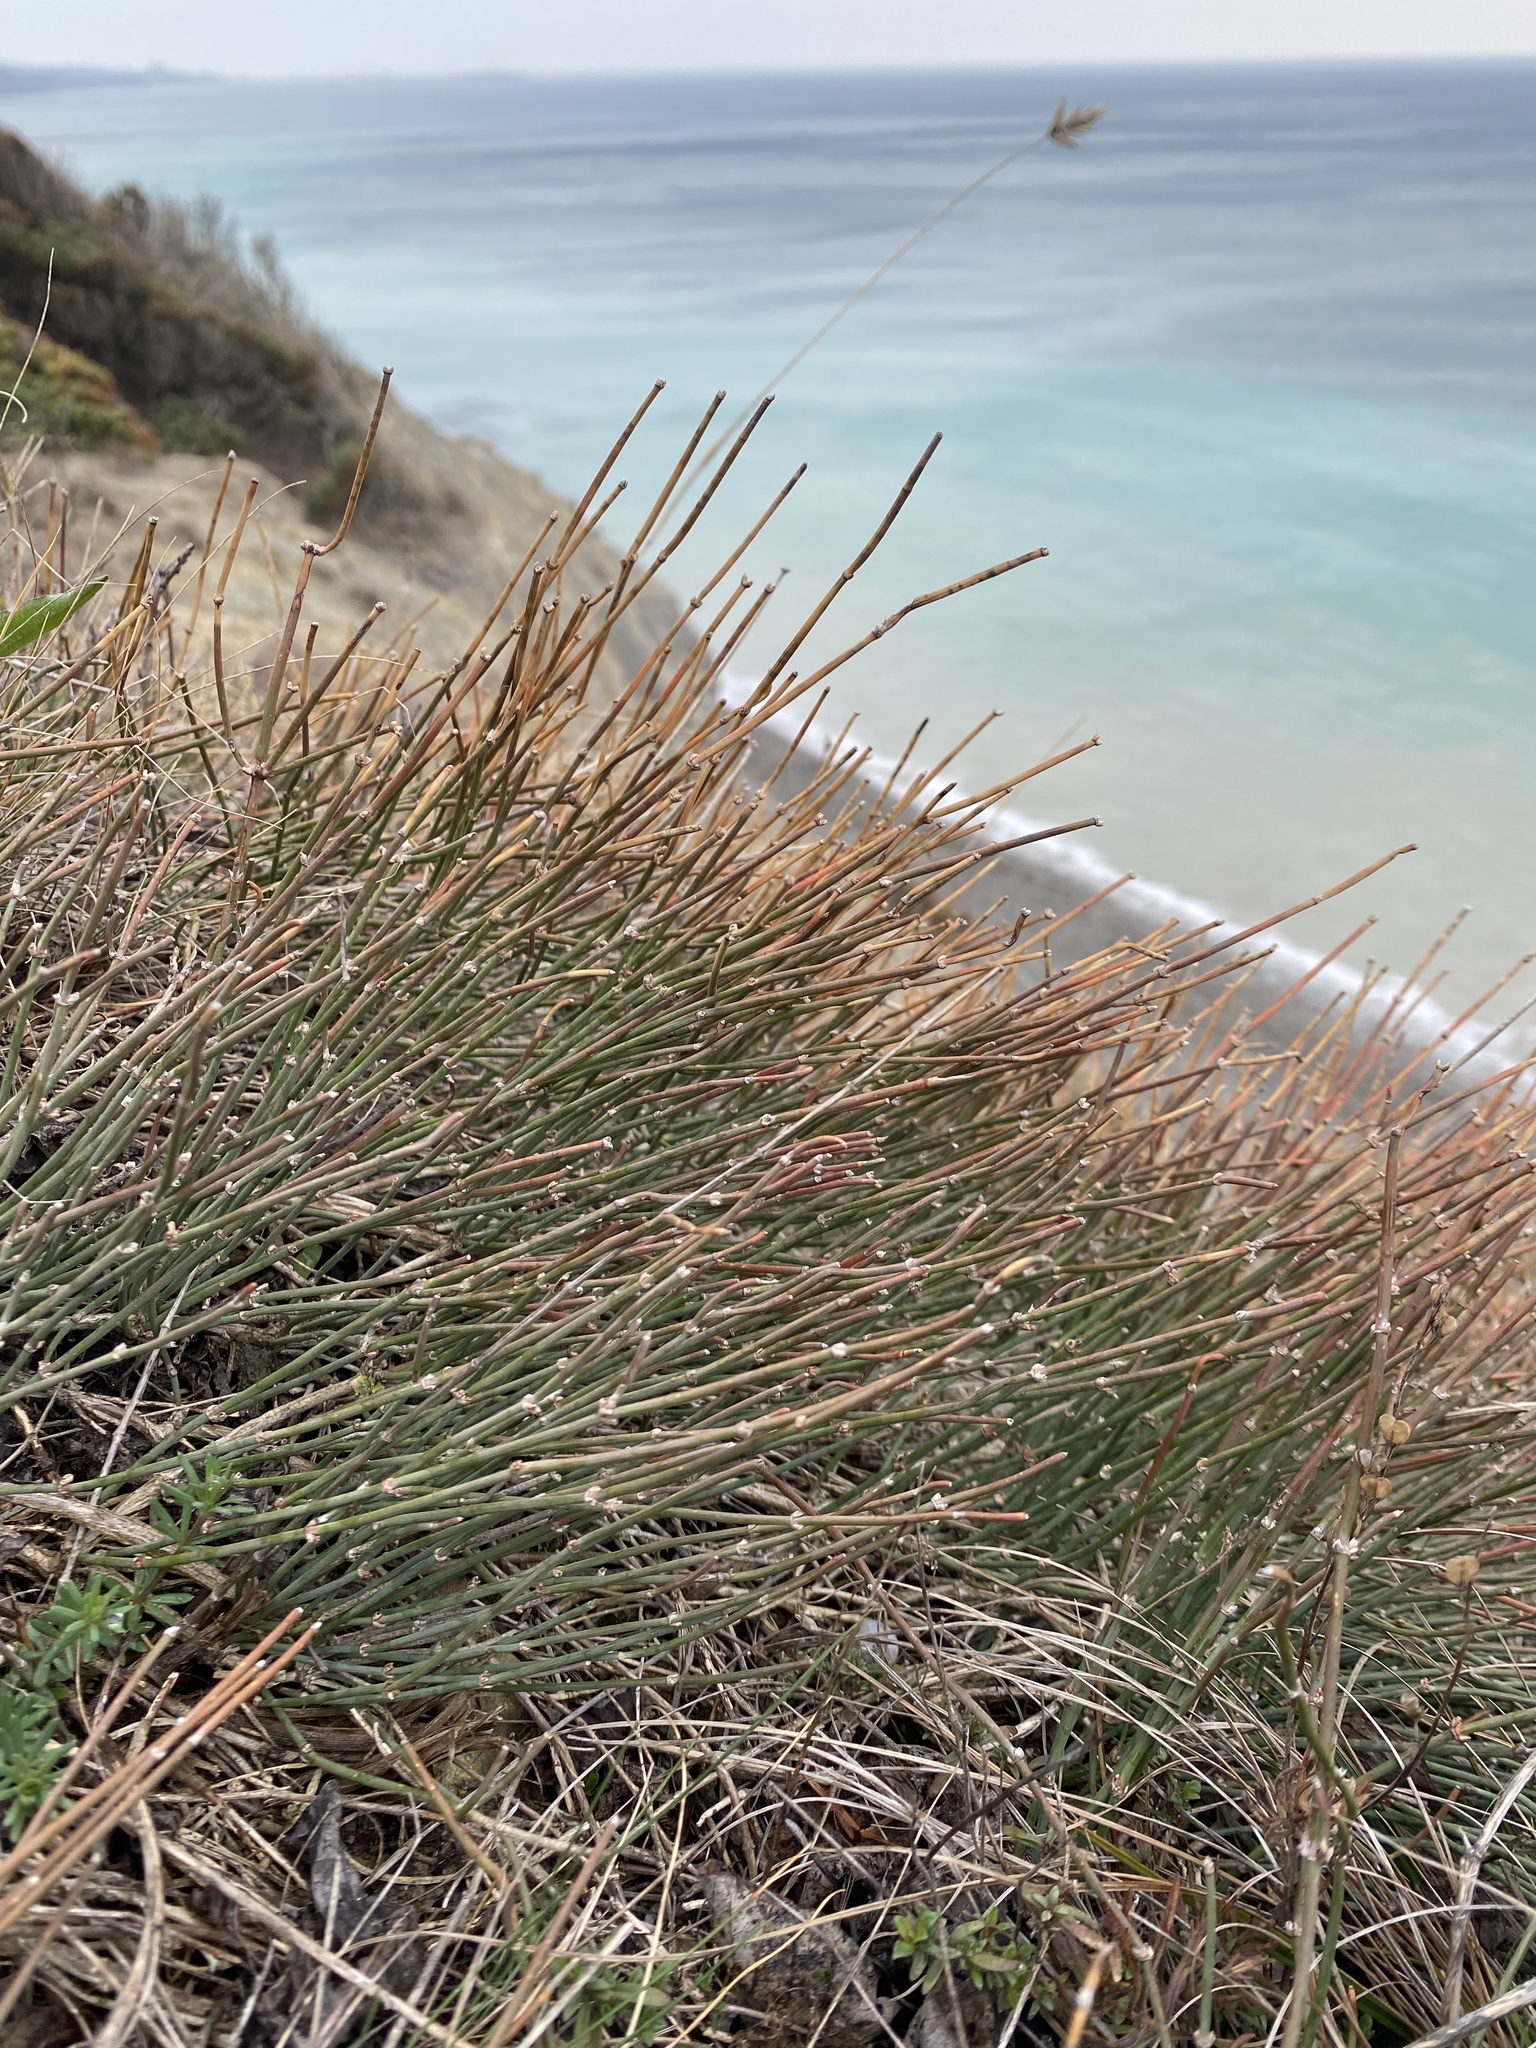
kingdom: Plantae
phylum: Tracheophyta
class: Gnetopsida
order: Ephedrales
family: Ephedraceae
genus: Ephedra
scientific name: Ephedra distachya
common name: Sea grape
